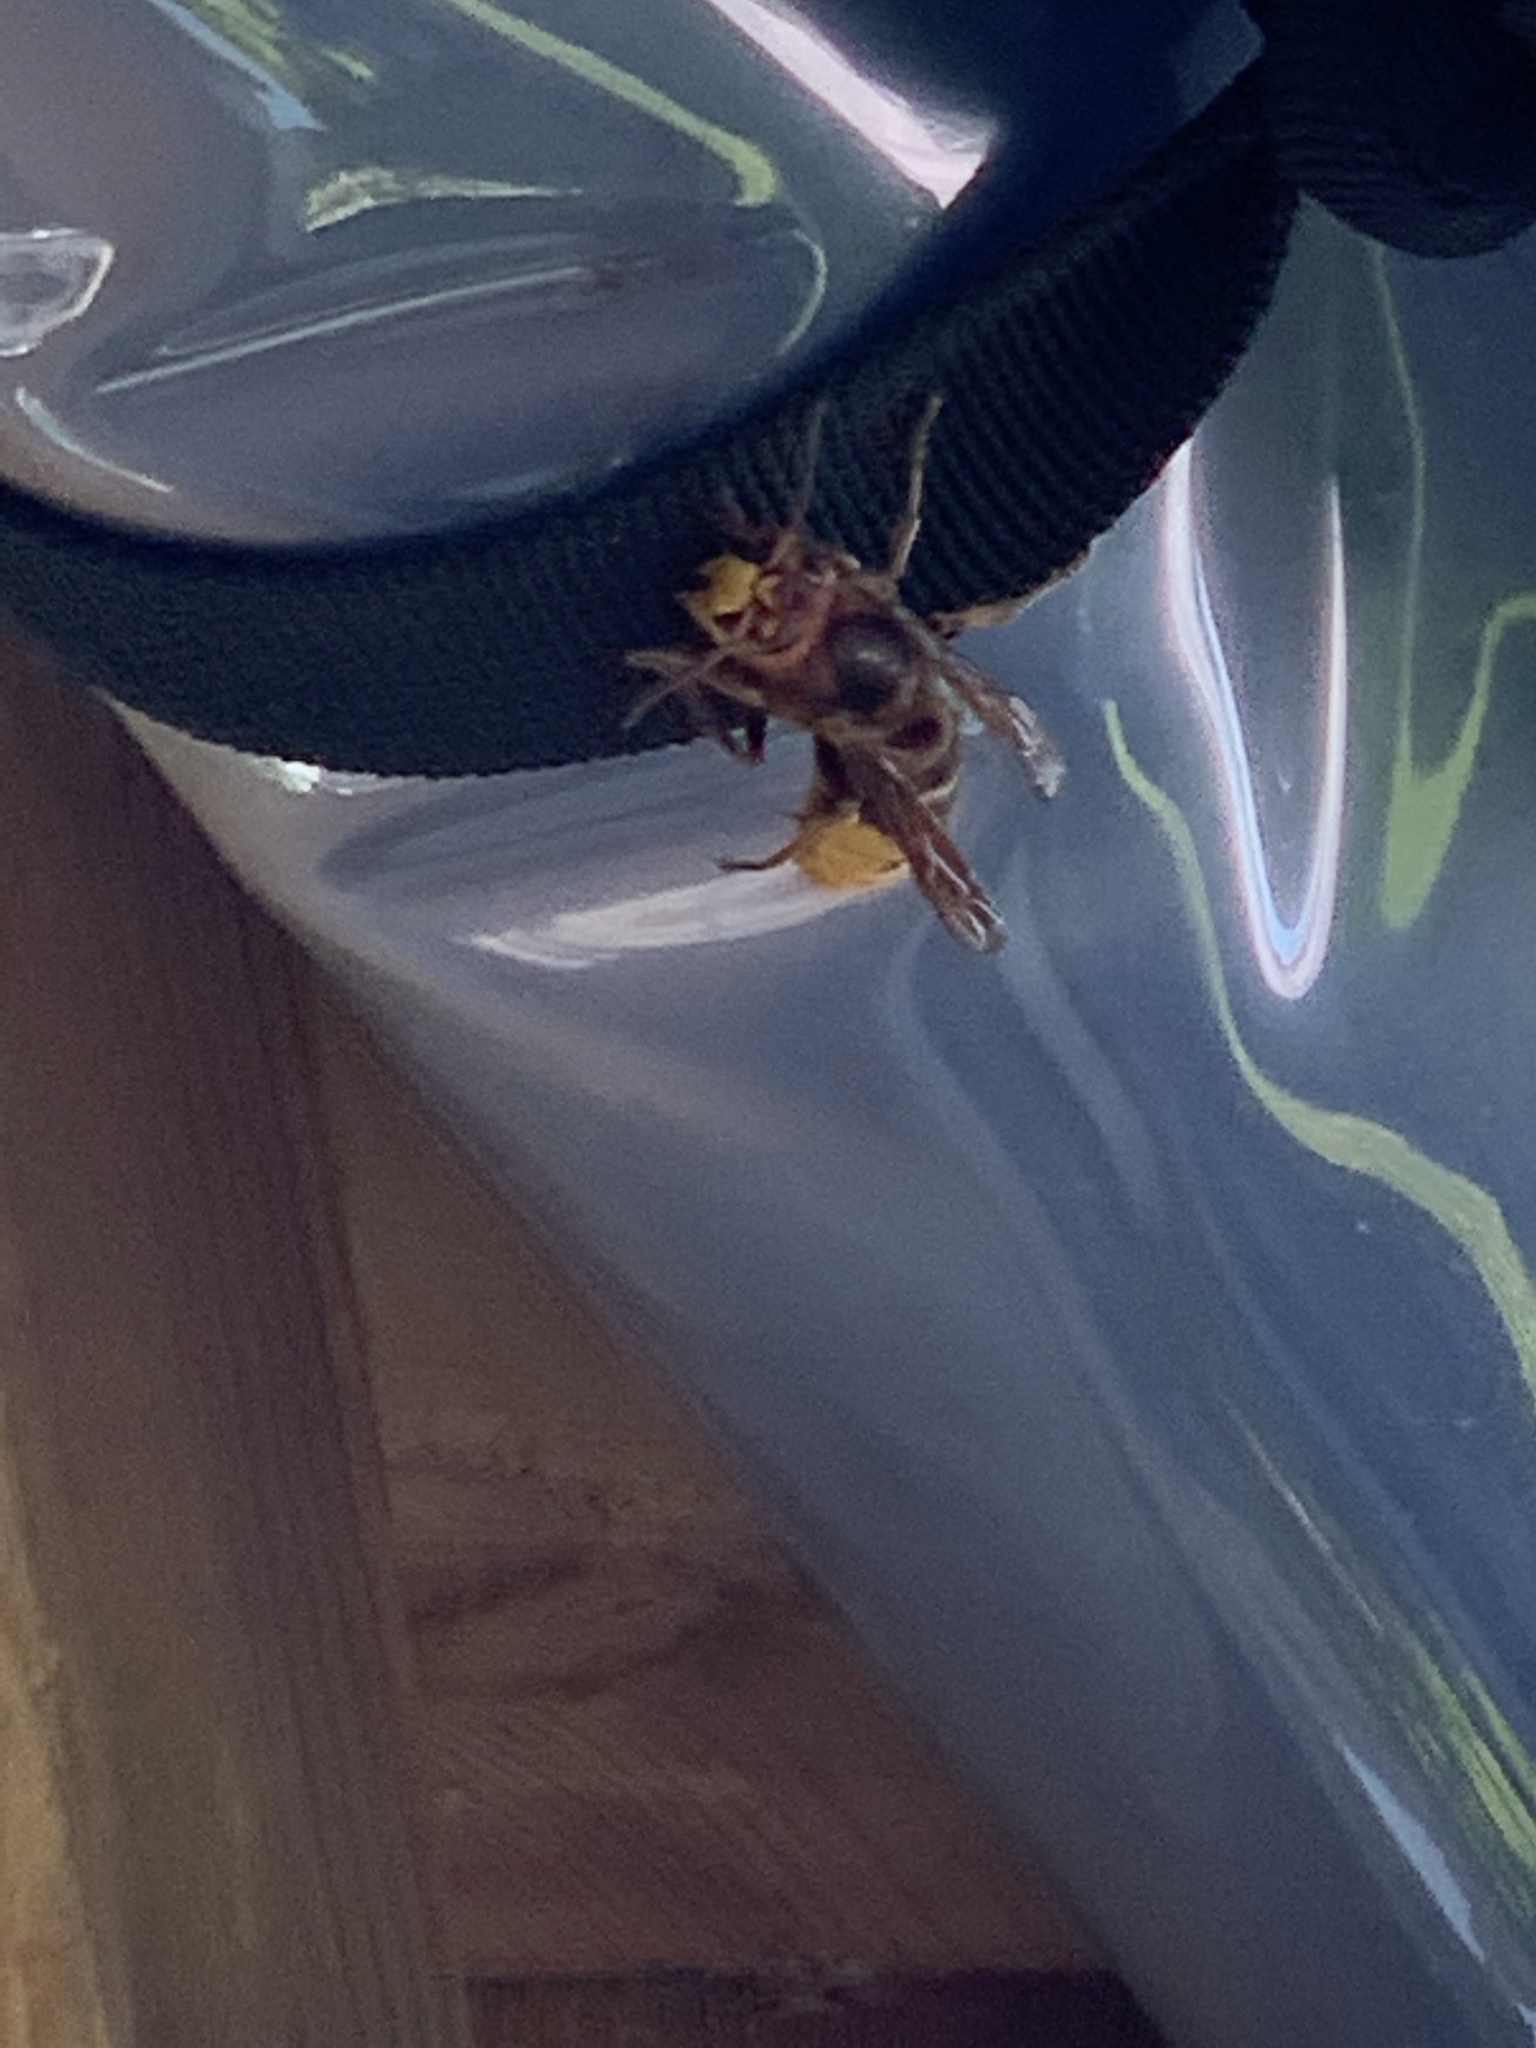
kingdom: Animalia
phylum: Arthropoda
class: Insecta
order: Hymenoptera
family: Vespidae
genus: Vespa
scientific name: Vespa crabro
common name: Hornet
